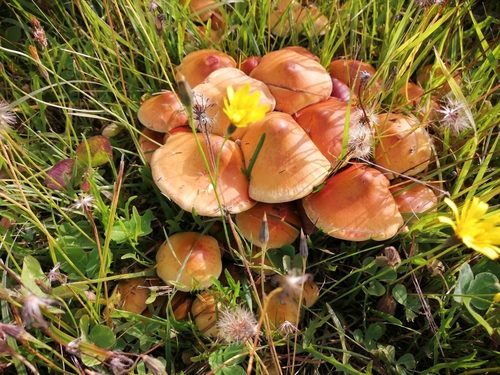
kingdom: Fungi
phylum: Basidiomycota
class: Agaricomycetes
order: Agaricales
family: Strophariaceae
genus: Pholiota
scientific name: Pholiota spumosa
